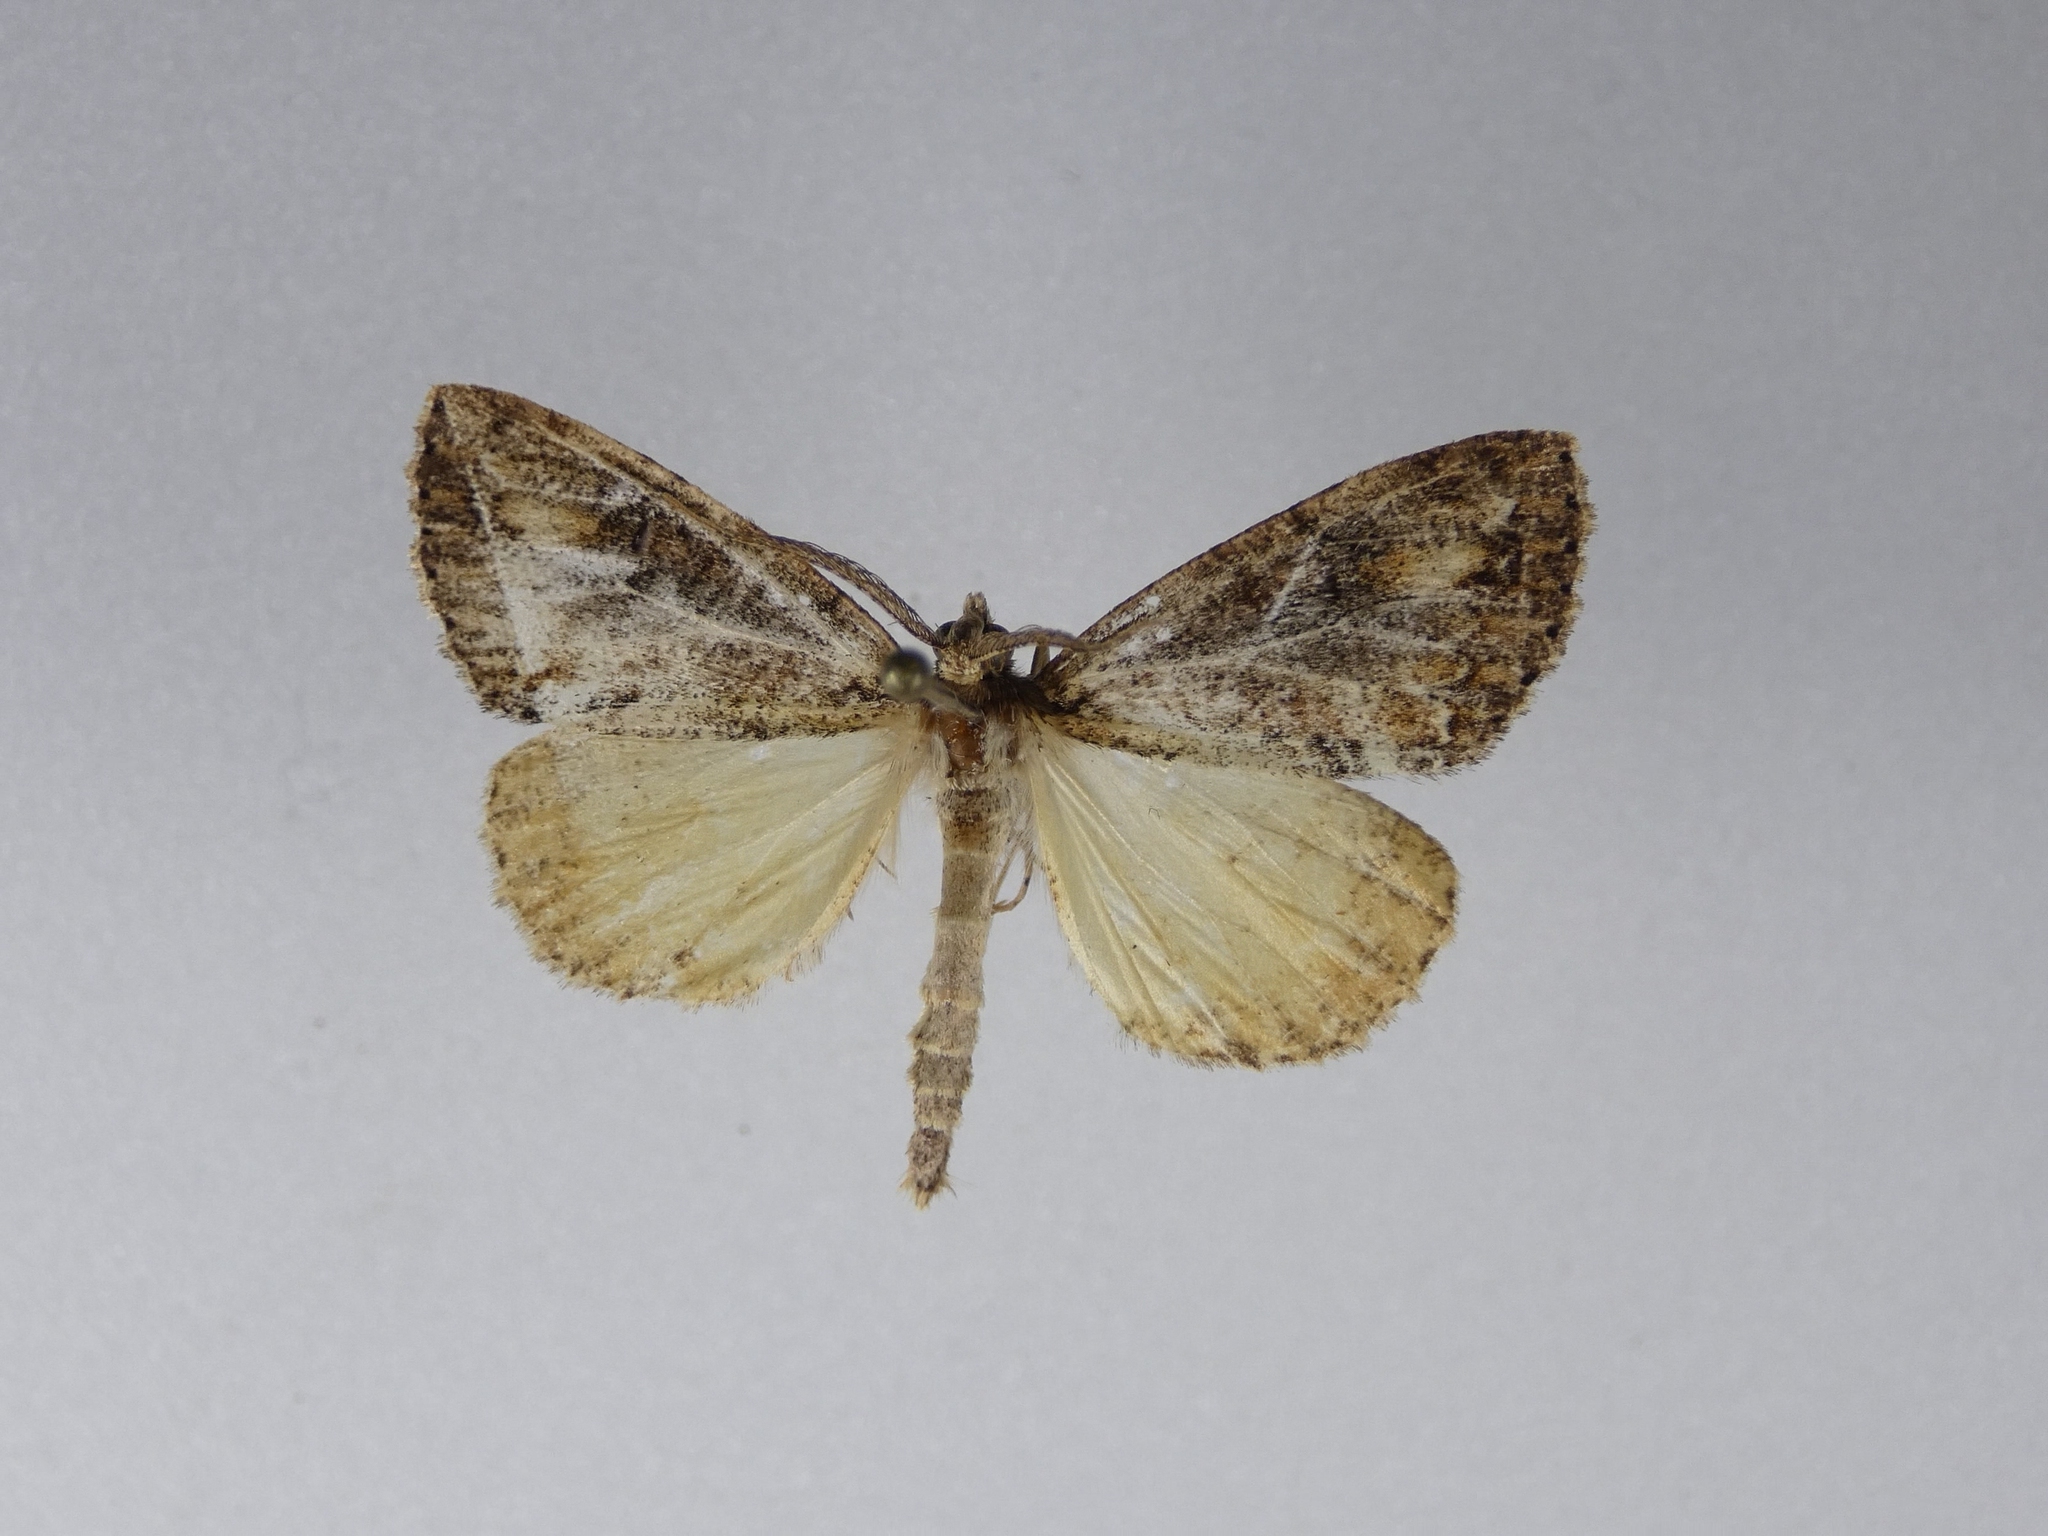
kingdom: Animalia
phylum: Arthropoda
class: Insecta
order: Lepidoptera
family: Geometridae
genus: Pseudocoremia
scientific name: Pseudocoremia suavis
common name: Common forest looper
